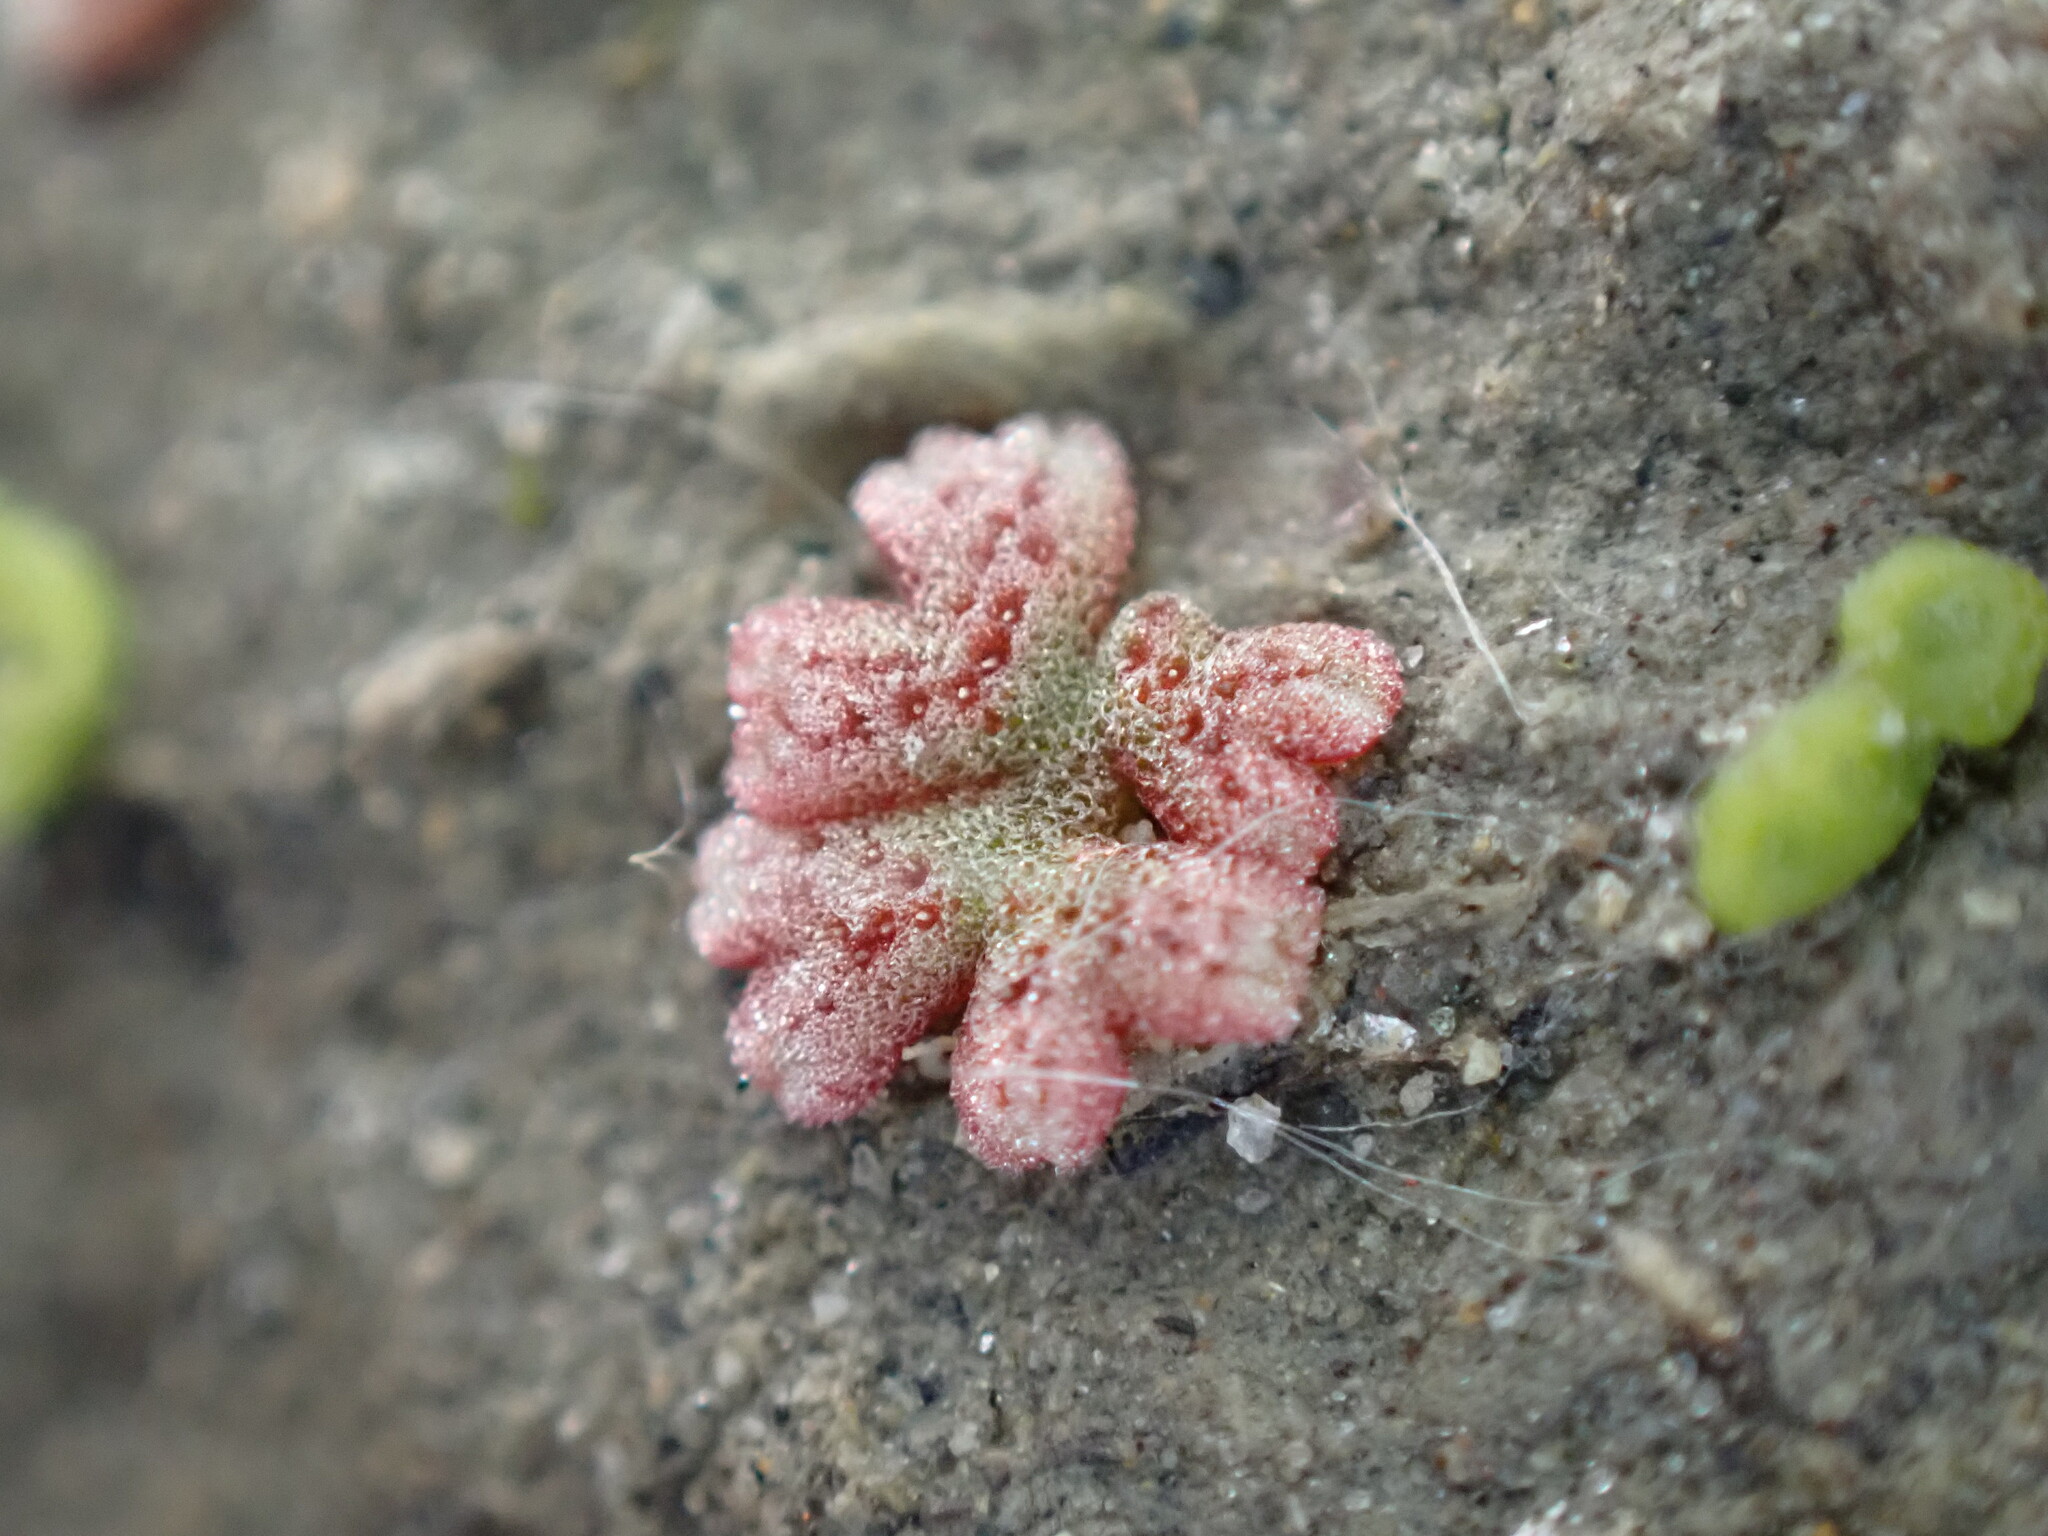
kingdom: Plantae
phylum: Marchantiophyta
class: Marchantiopsida
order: Marchantiales
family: Ricciaceae
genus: Riccia
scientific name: Riccia frostii
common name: Frost s crystalwort
